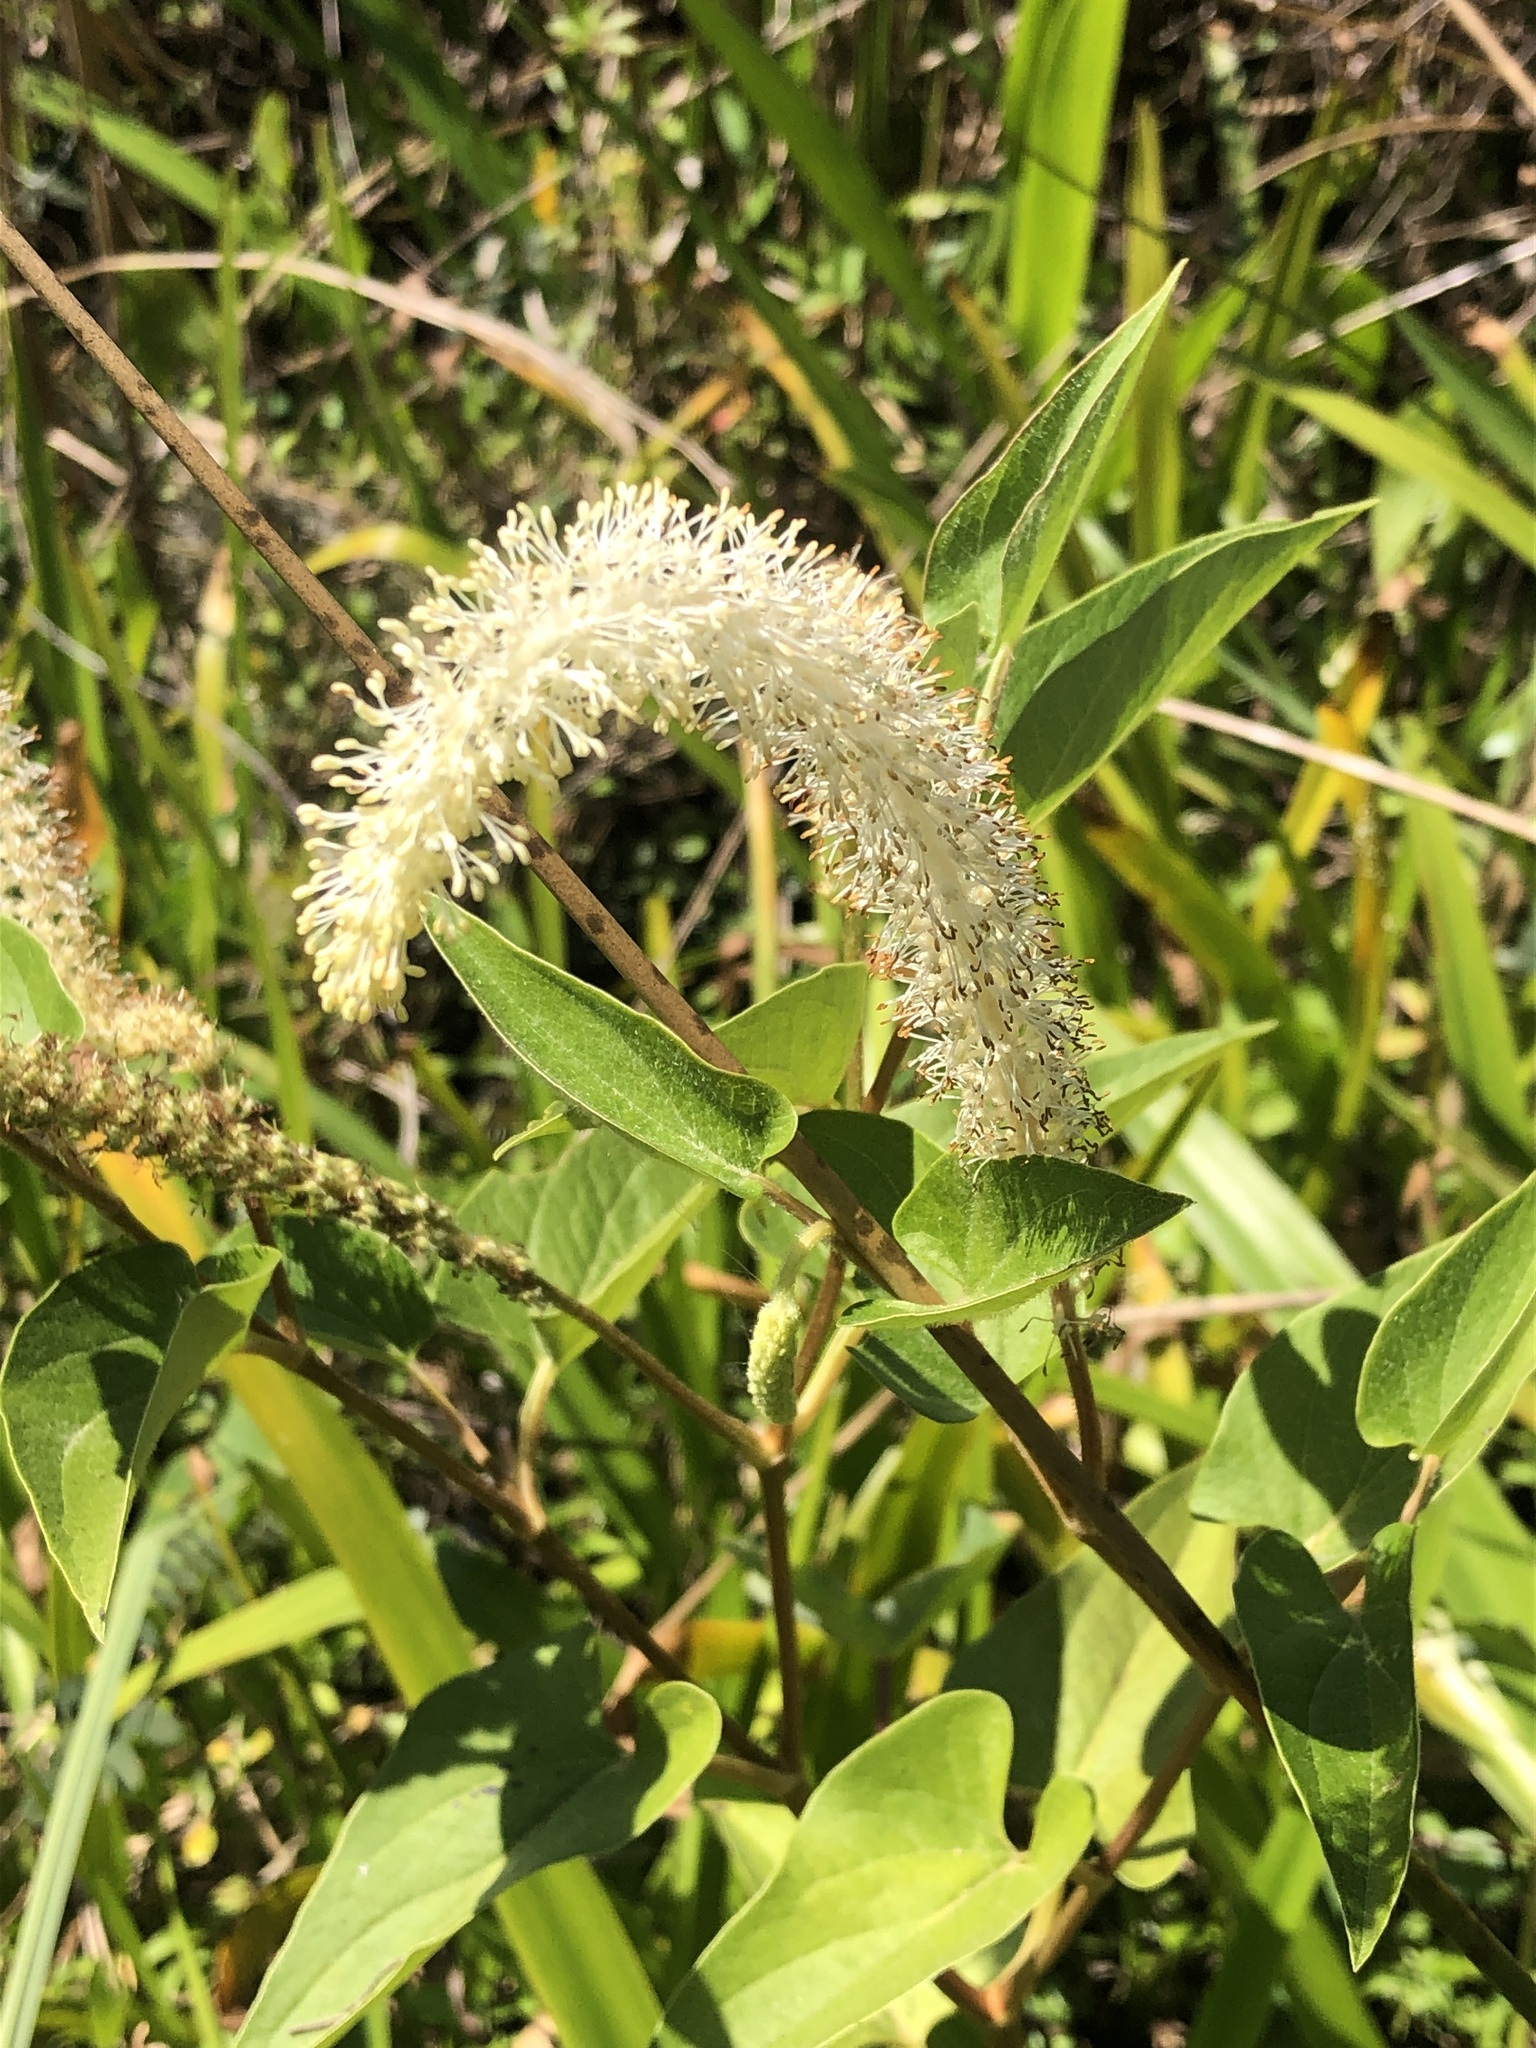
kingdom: Plantae
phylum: Tracheophyta
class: Magnoliopsida
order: Piperales
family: Saururaceae
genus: Saururus
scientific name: Saururus cernuus
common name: Lizard's-tail
